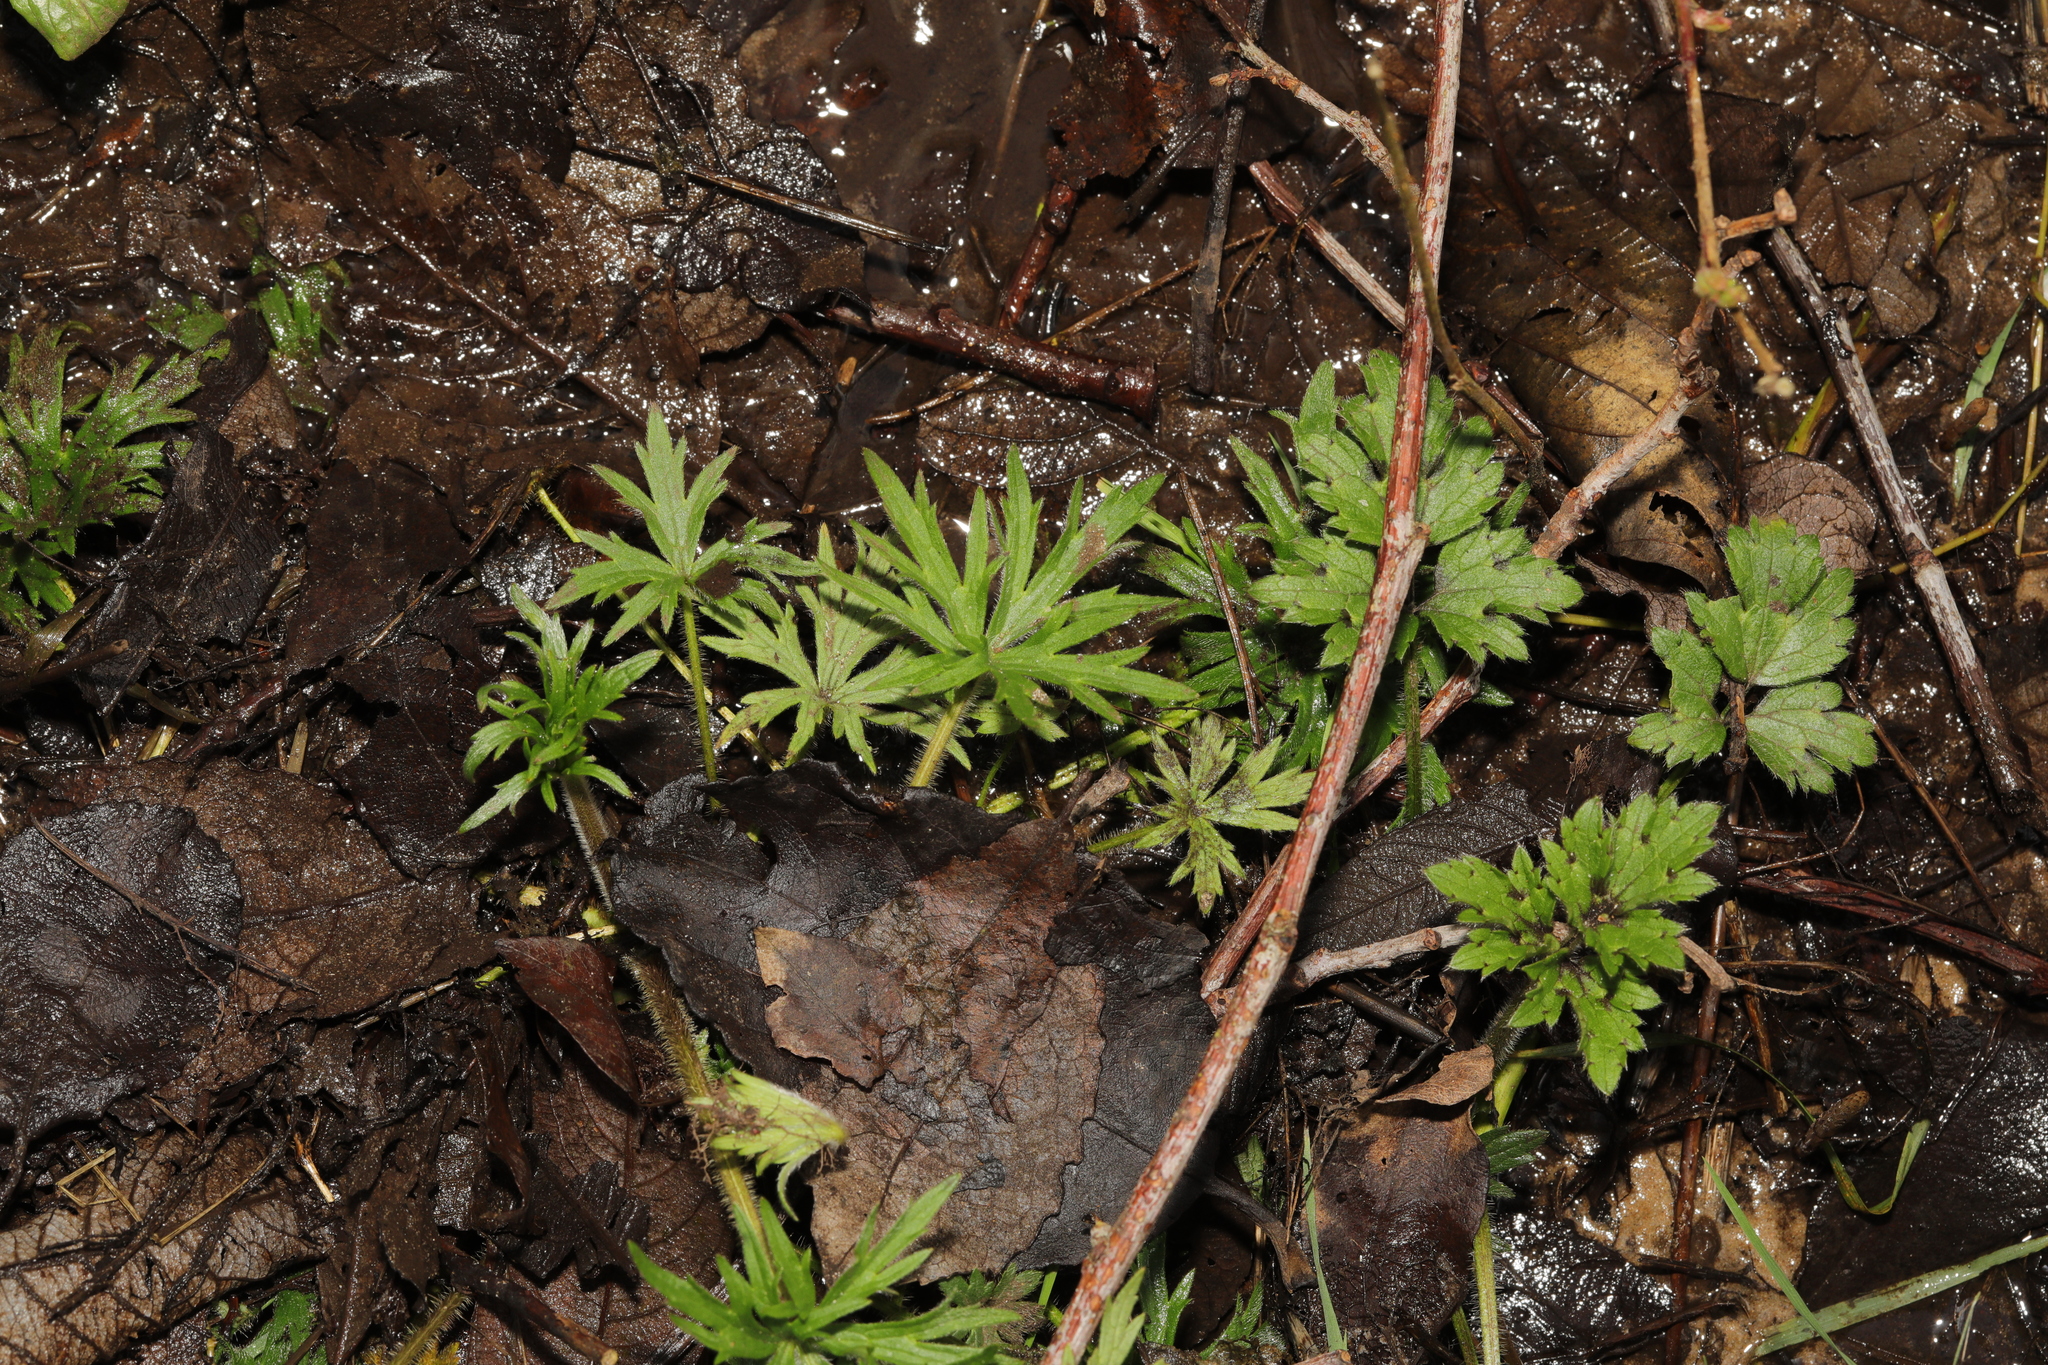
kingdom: Plantae
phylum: Tracheophyta
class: Magnoliopsida
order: Ranunculales
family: Ranunculaceae
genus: Ranunculus
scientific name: Ranunculus acris
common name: Meadow buttercup
